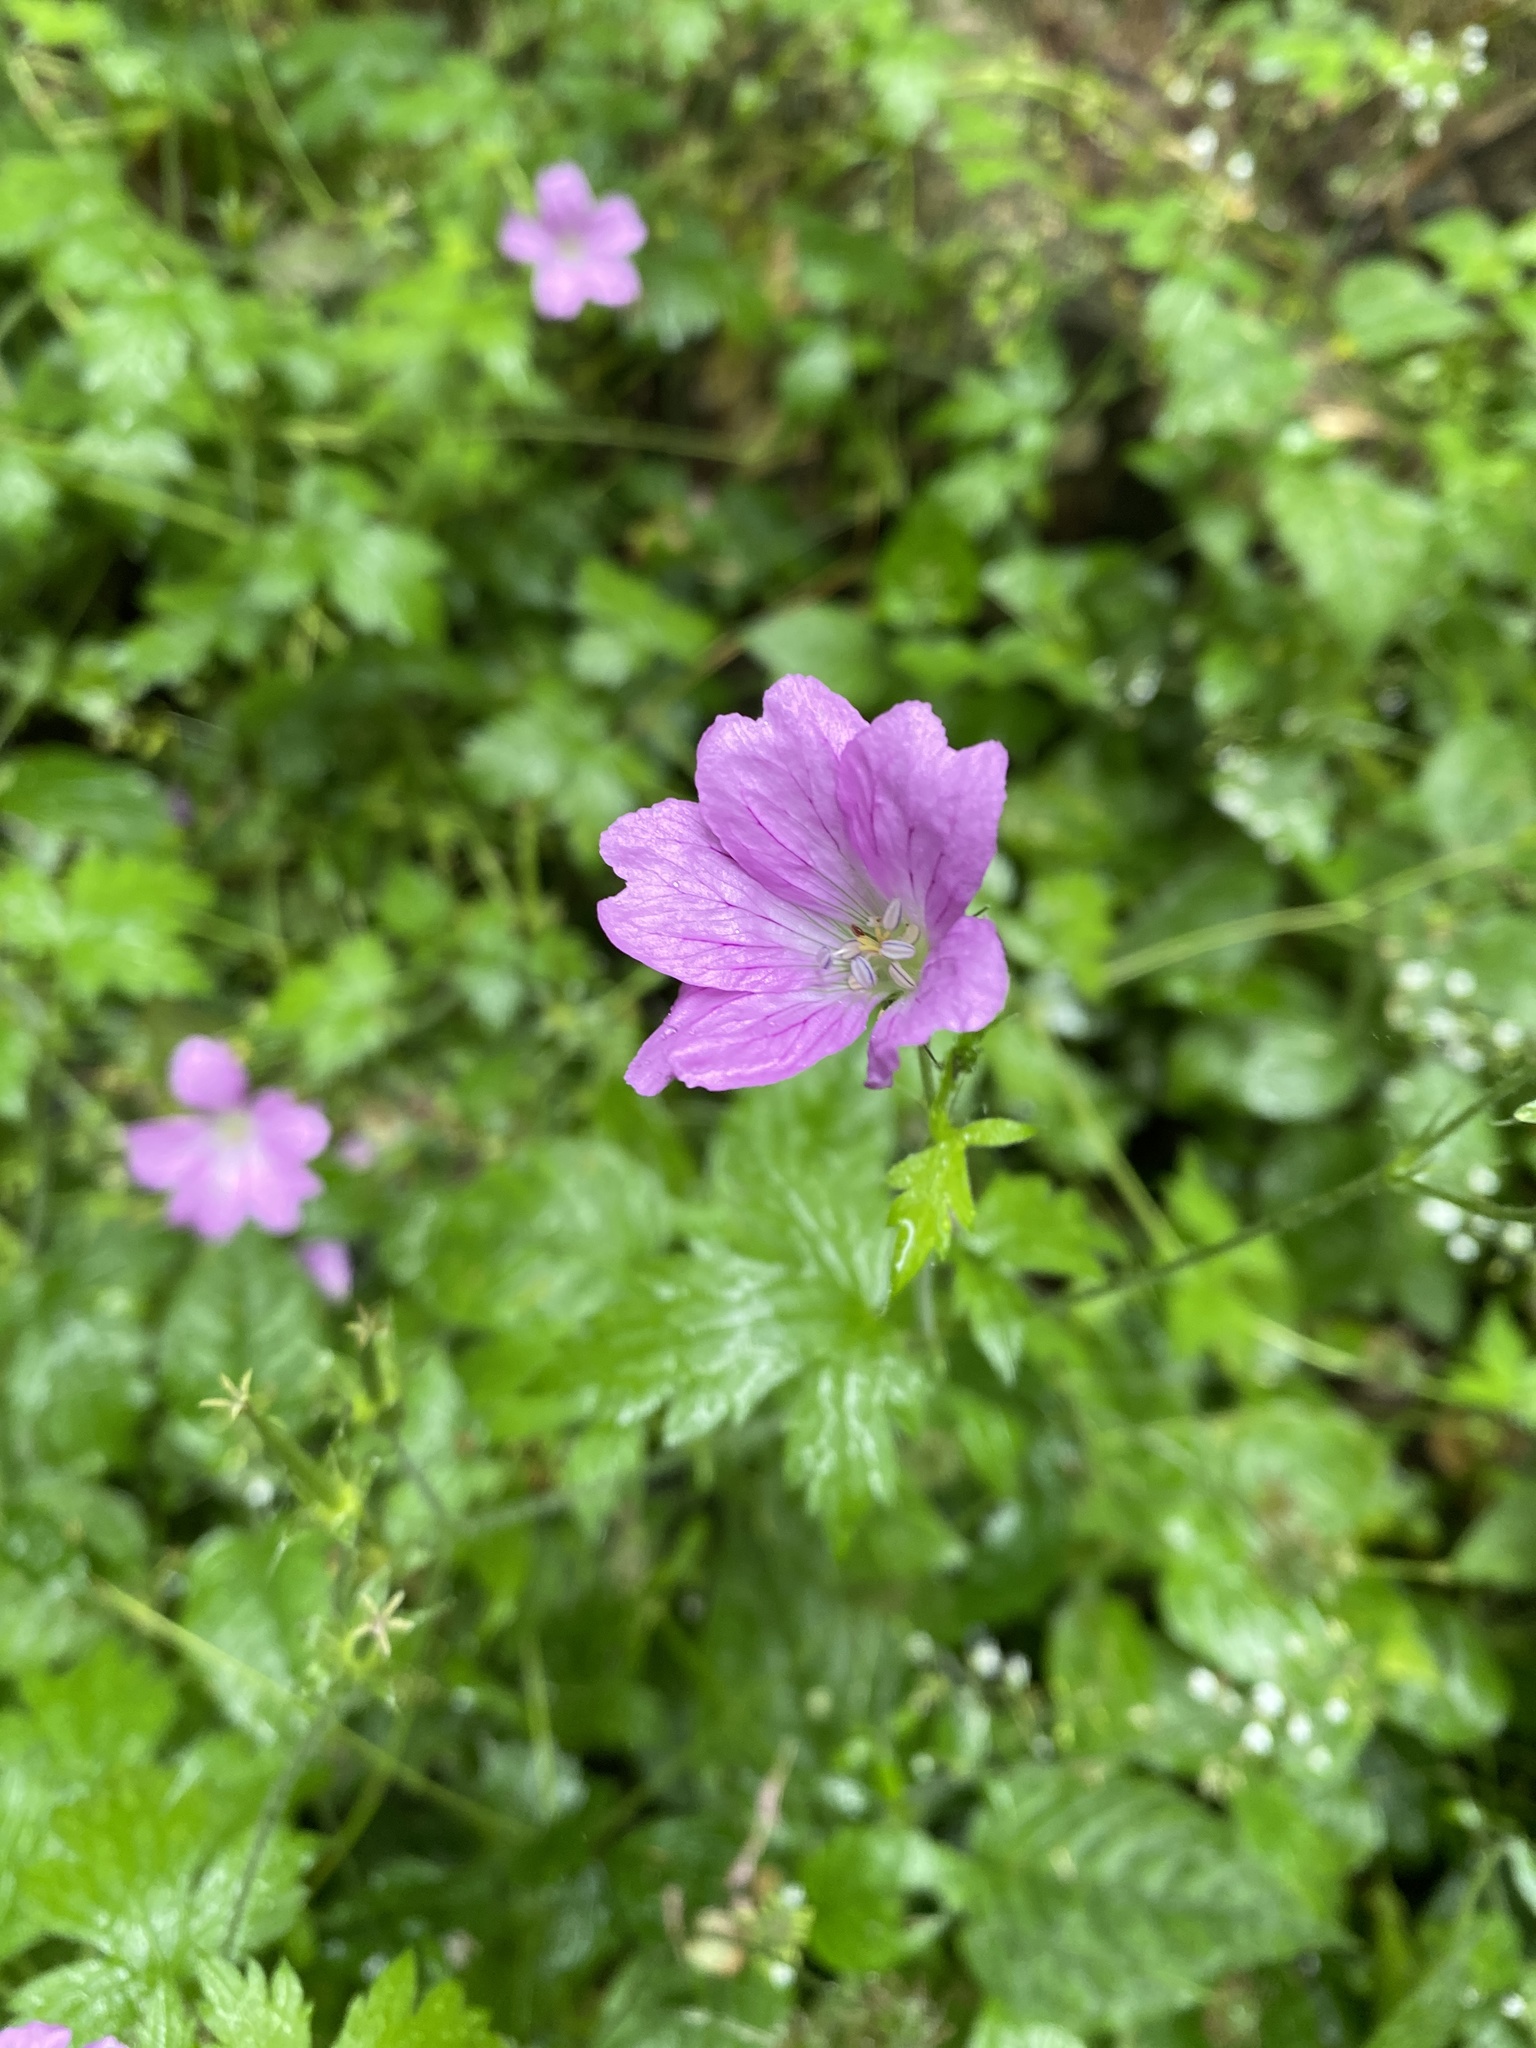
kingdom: Plantae
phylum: Tracheophyta
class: Magnoliopsida
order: Geraniales
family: Geraniaceae
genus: Geranium
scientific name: Geranium oxonianum
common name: Druce's crane's-bill
